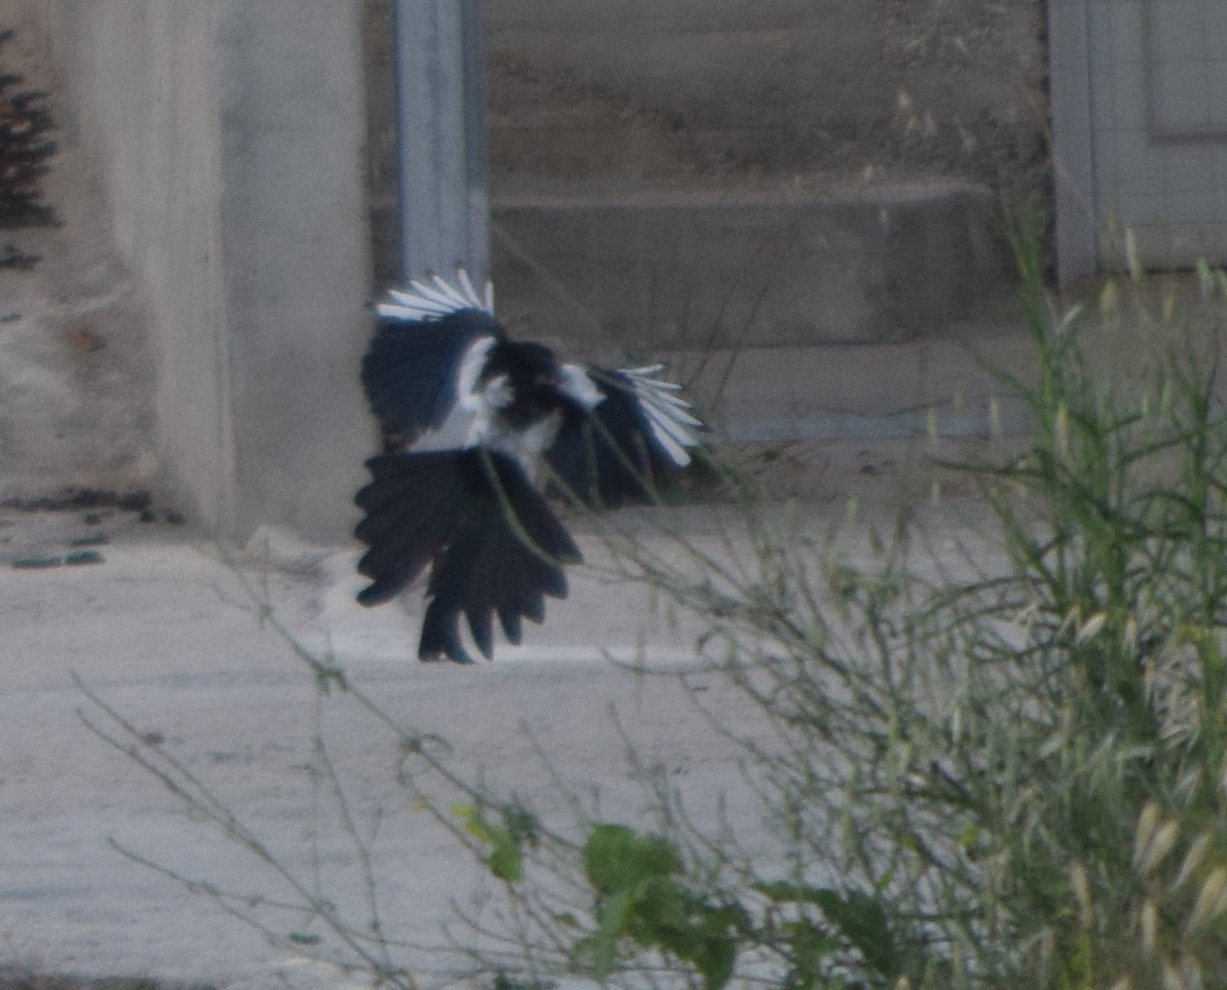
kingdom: Animalia
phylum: Chordata
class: Aves
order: Passeriformes
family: Corvidae
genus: Pica
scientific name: Pica pica
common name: Eurasian magpie
